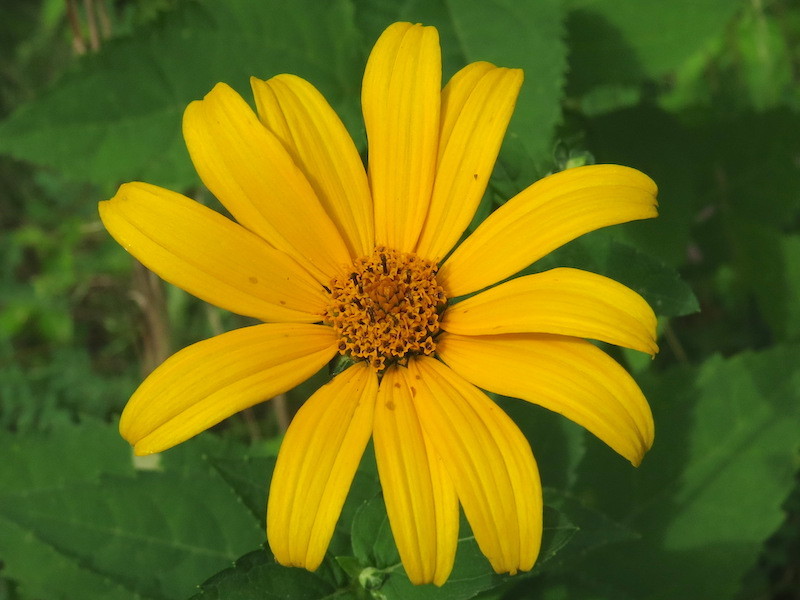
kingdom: Plantae
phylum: Tracheophyta
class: Magnoliopsida
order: Asterales
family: Asteraceae
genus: Heliopsis
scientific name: Heliopsis helianthoides
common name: False sunflower
